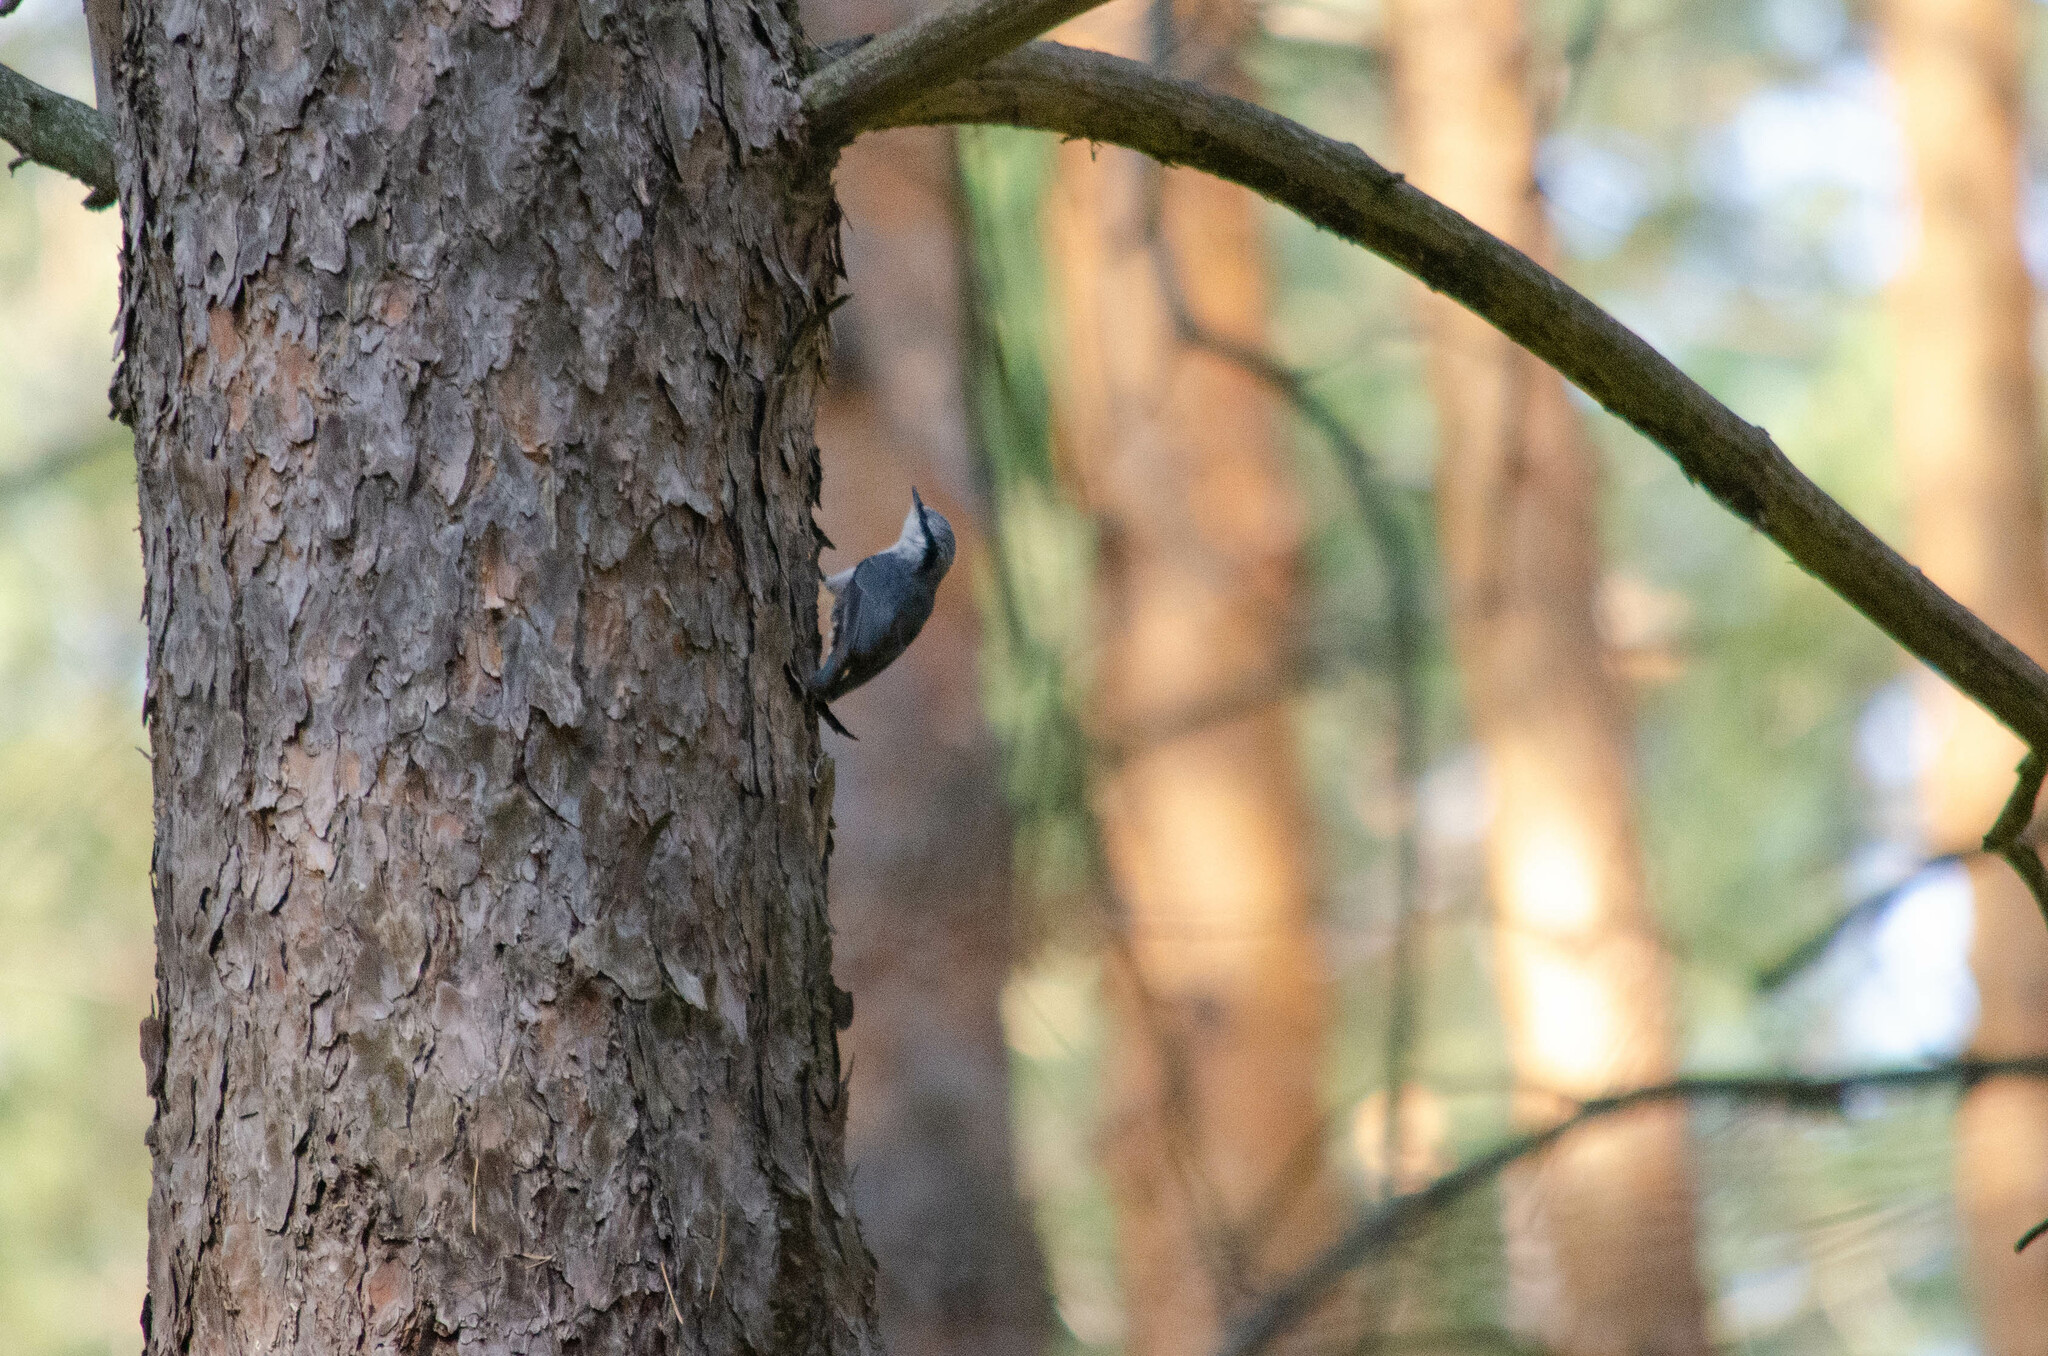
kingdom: Animalia
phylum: Chordata
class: Aves
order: Passeriformes
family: Sittidae
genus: Sitta
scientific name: Sitta europaea
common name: Eurasian nuthatch
